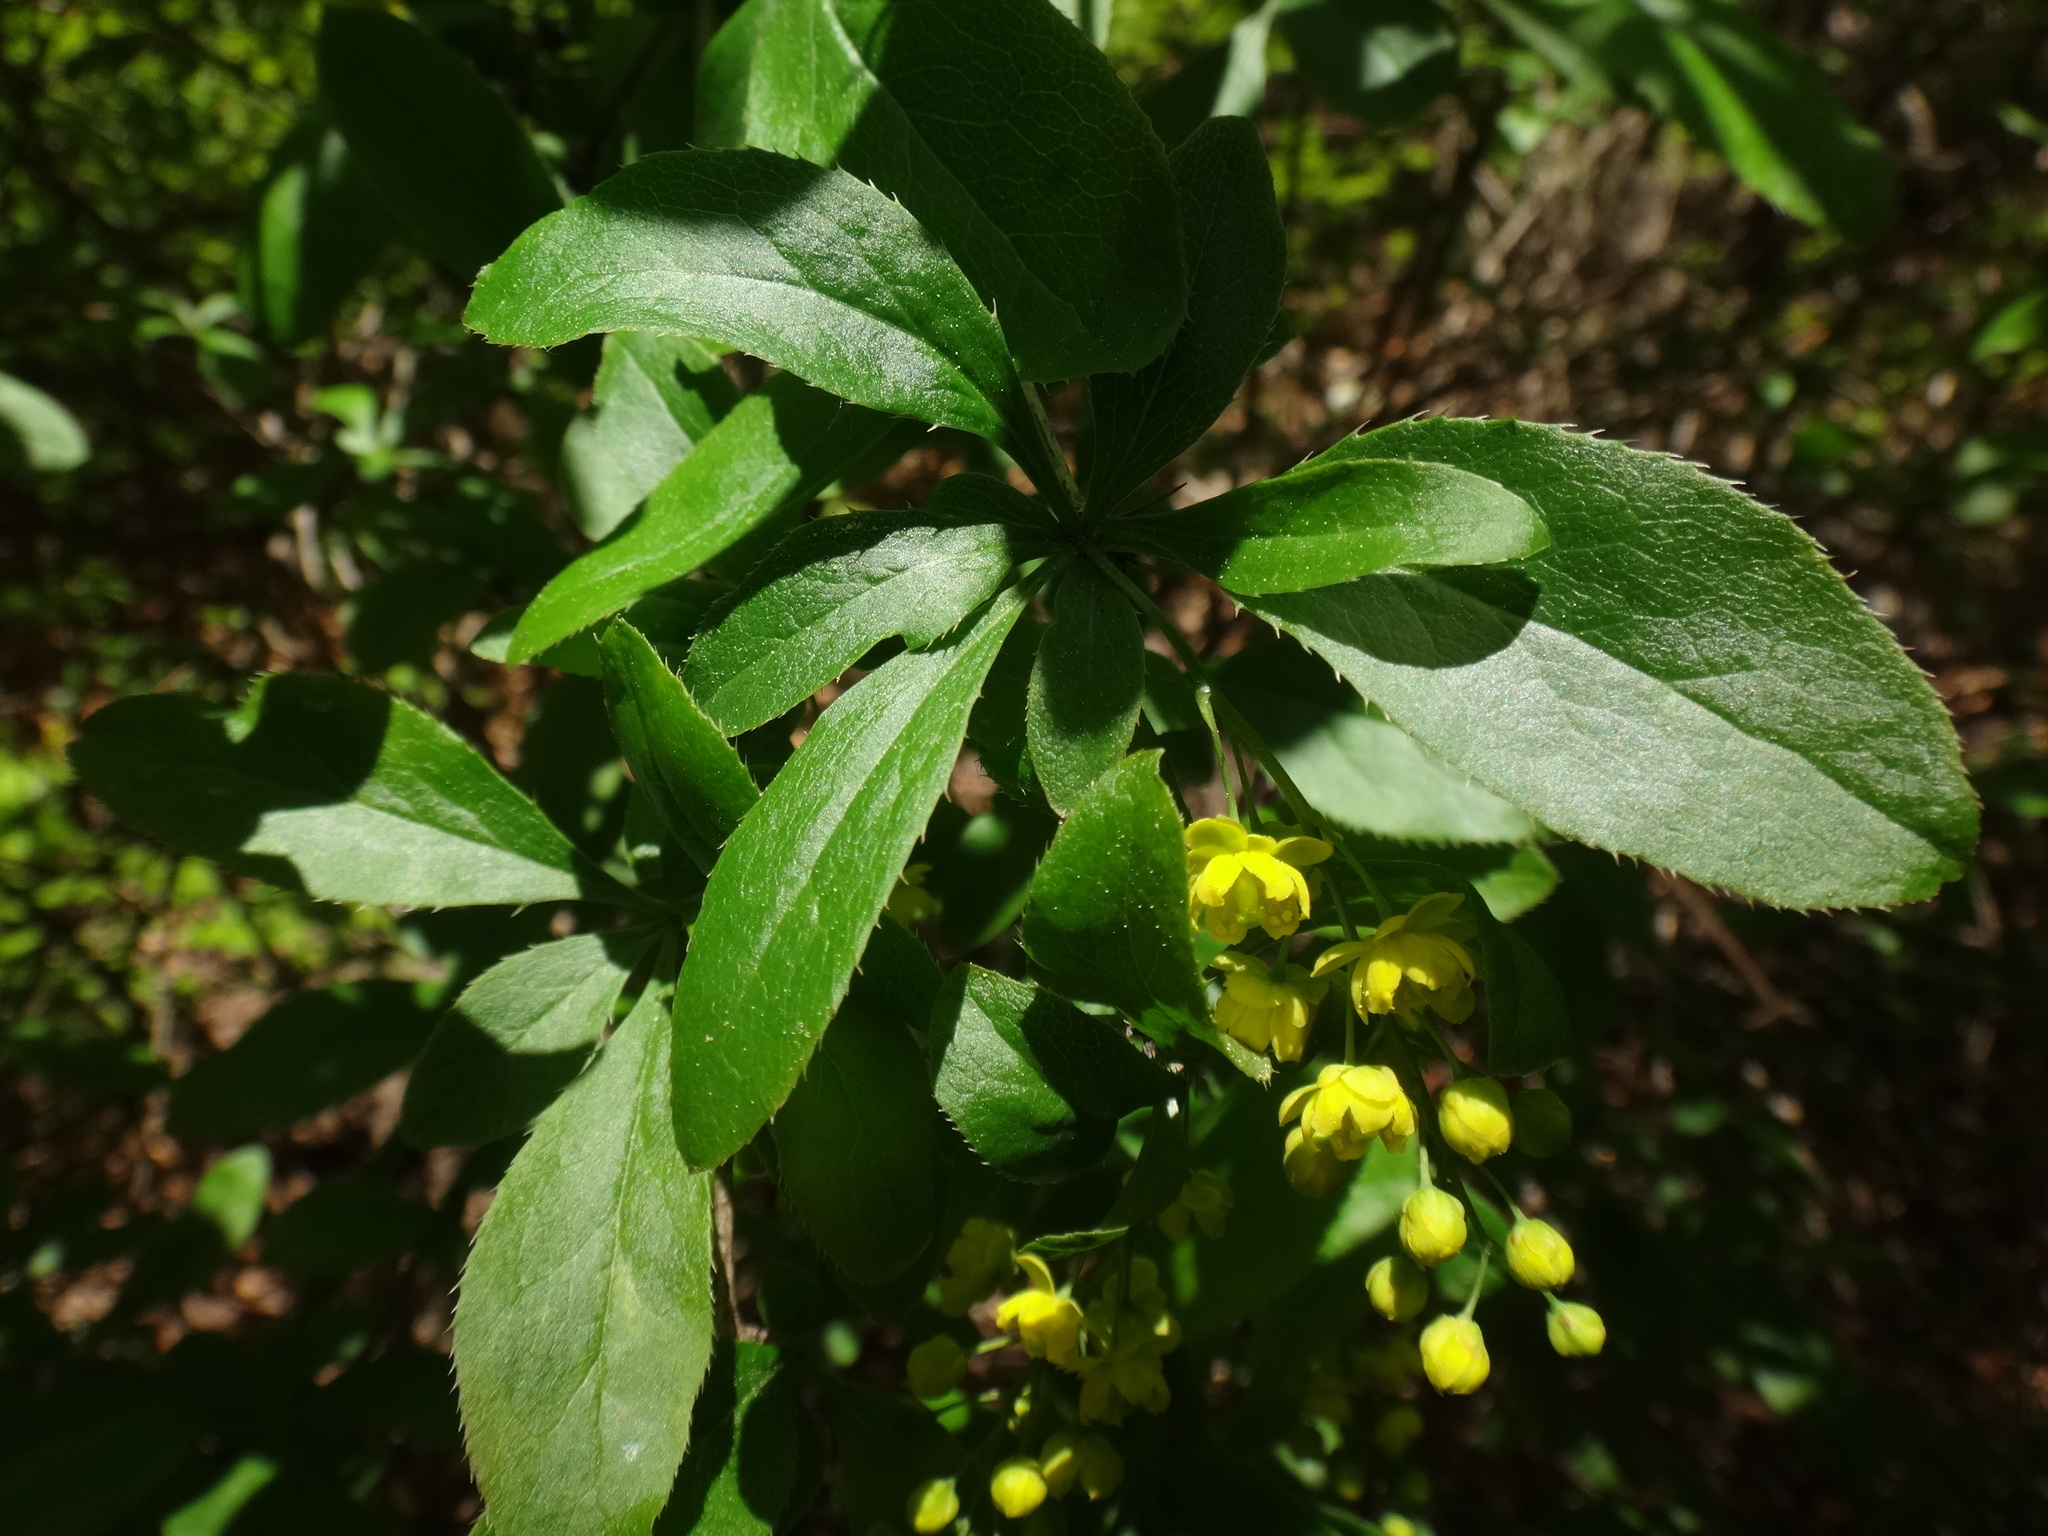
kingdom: Plantae
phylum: Tracheophyta
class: Magnoliopsida
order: Ranunculales
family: Berberidaceae
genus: Berberis
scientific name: Berberis vulgaris
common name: Barberry
